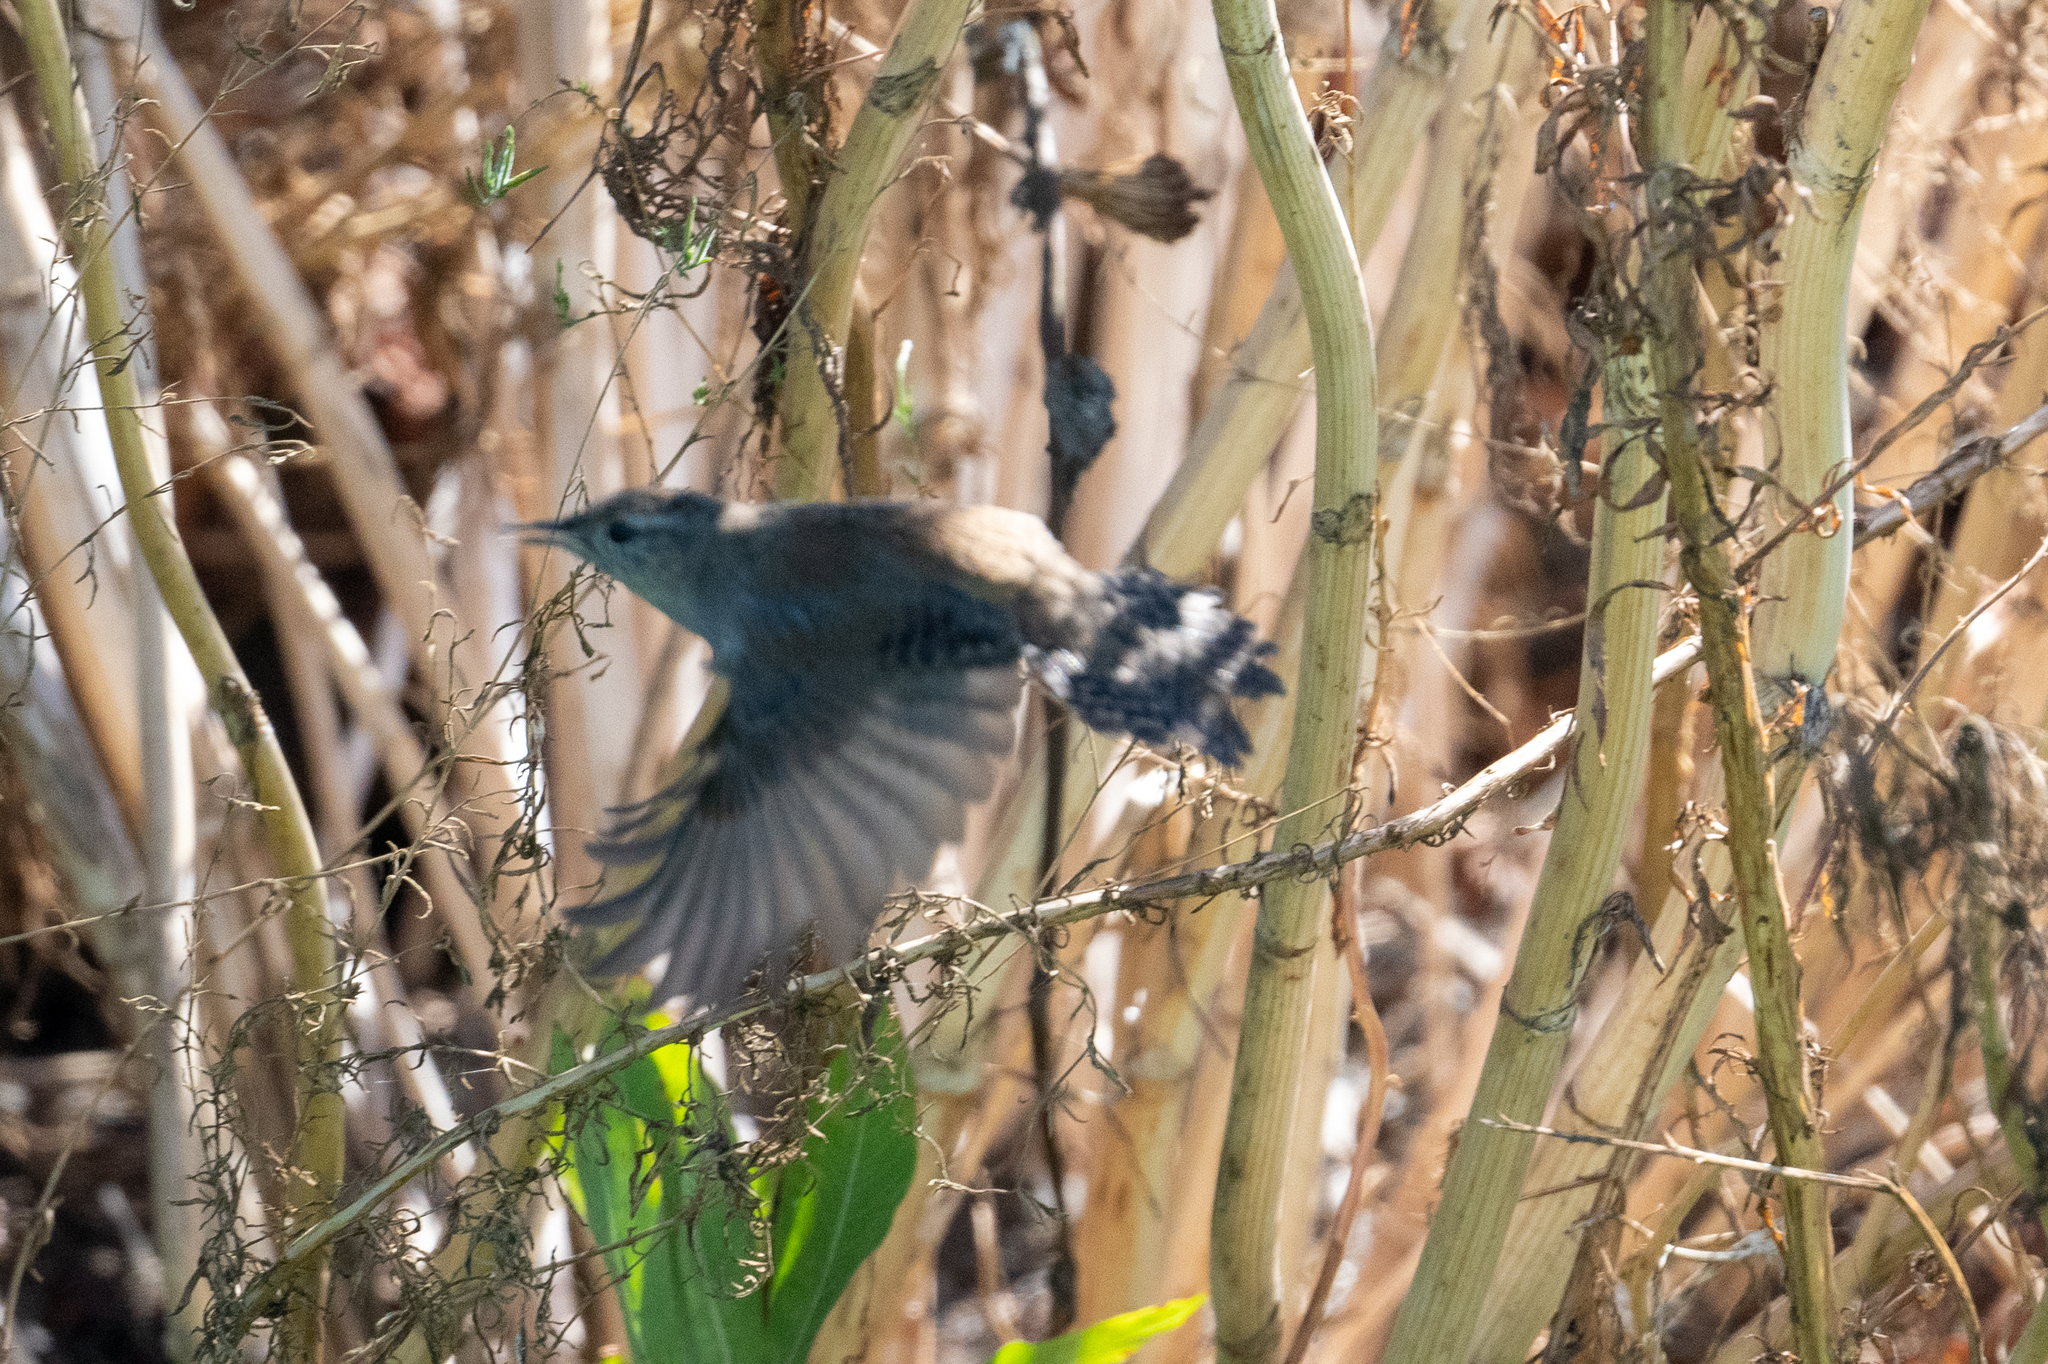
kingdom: Animalia
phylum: Chordata
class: Aves
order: Passeriformes
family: Troglodytidae
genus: Cistothorus
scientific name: Cistothorus palustris
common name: Marsh wren
